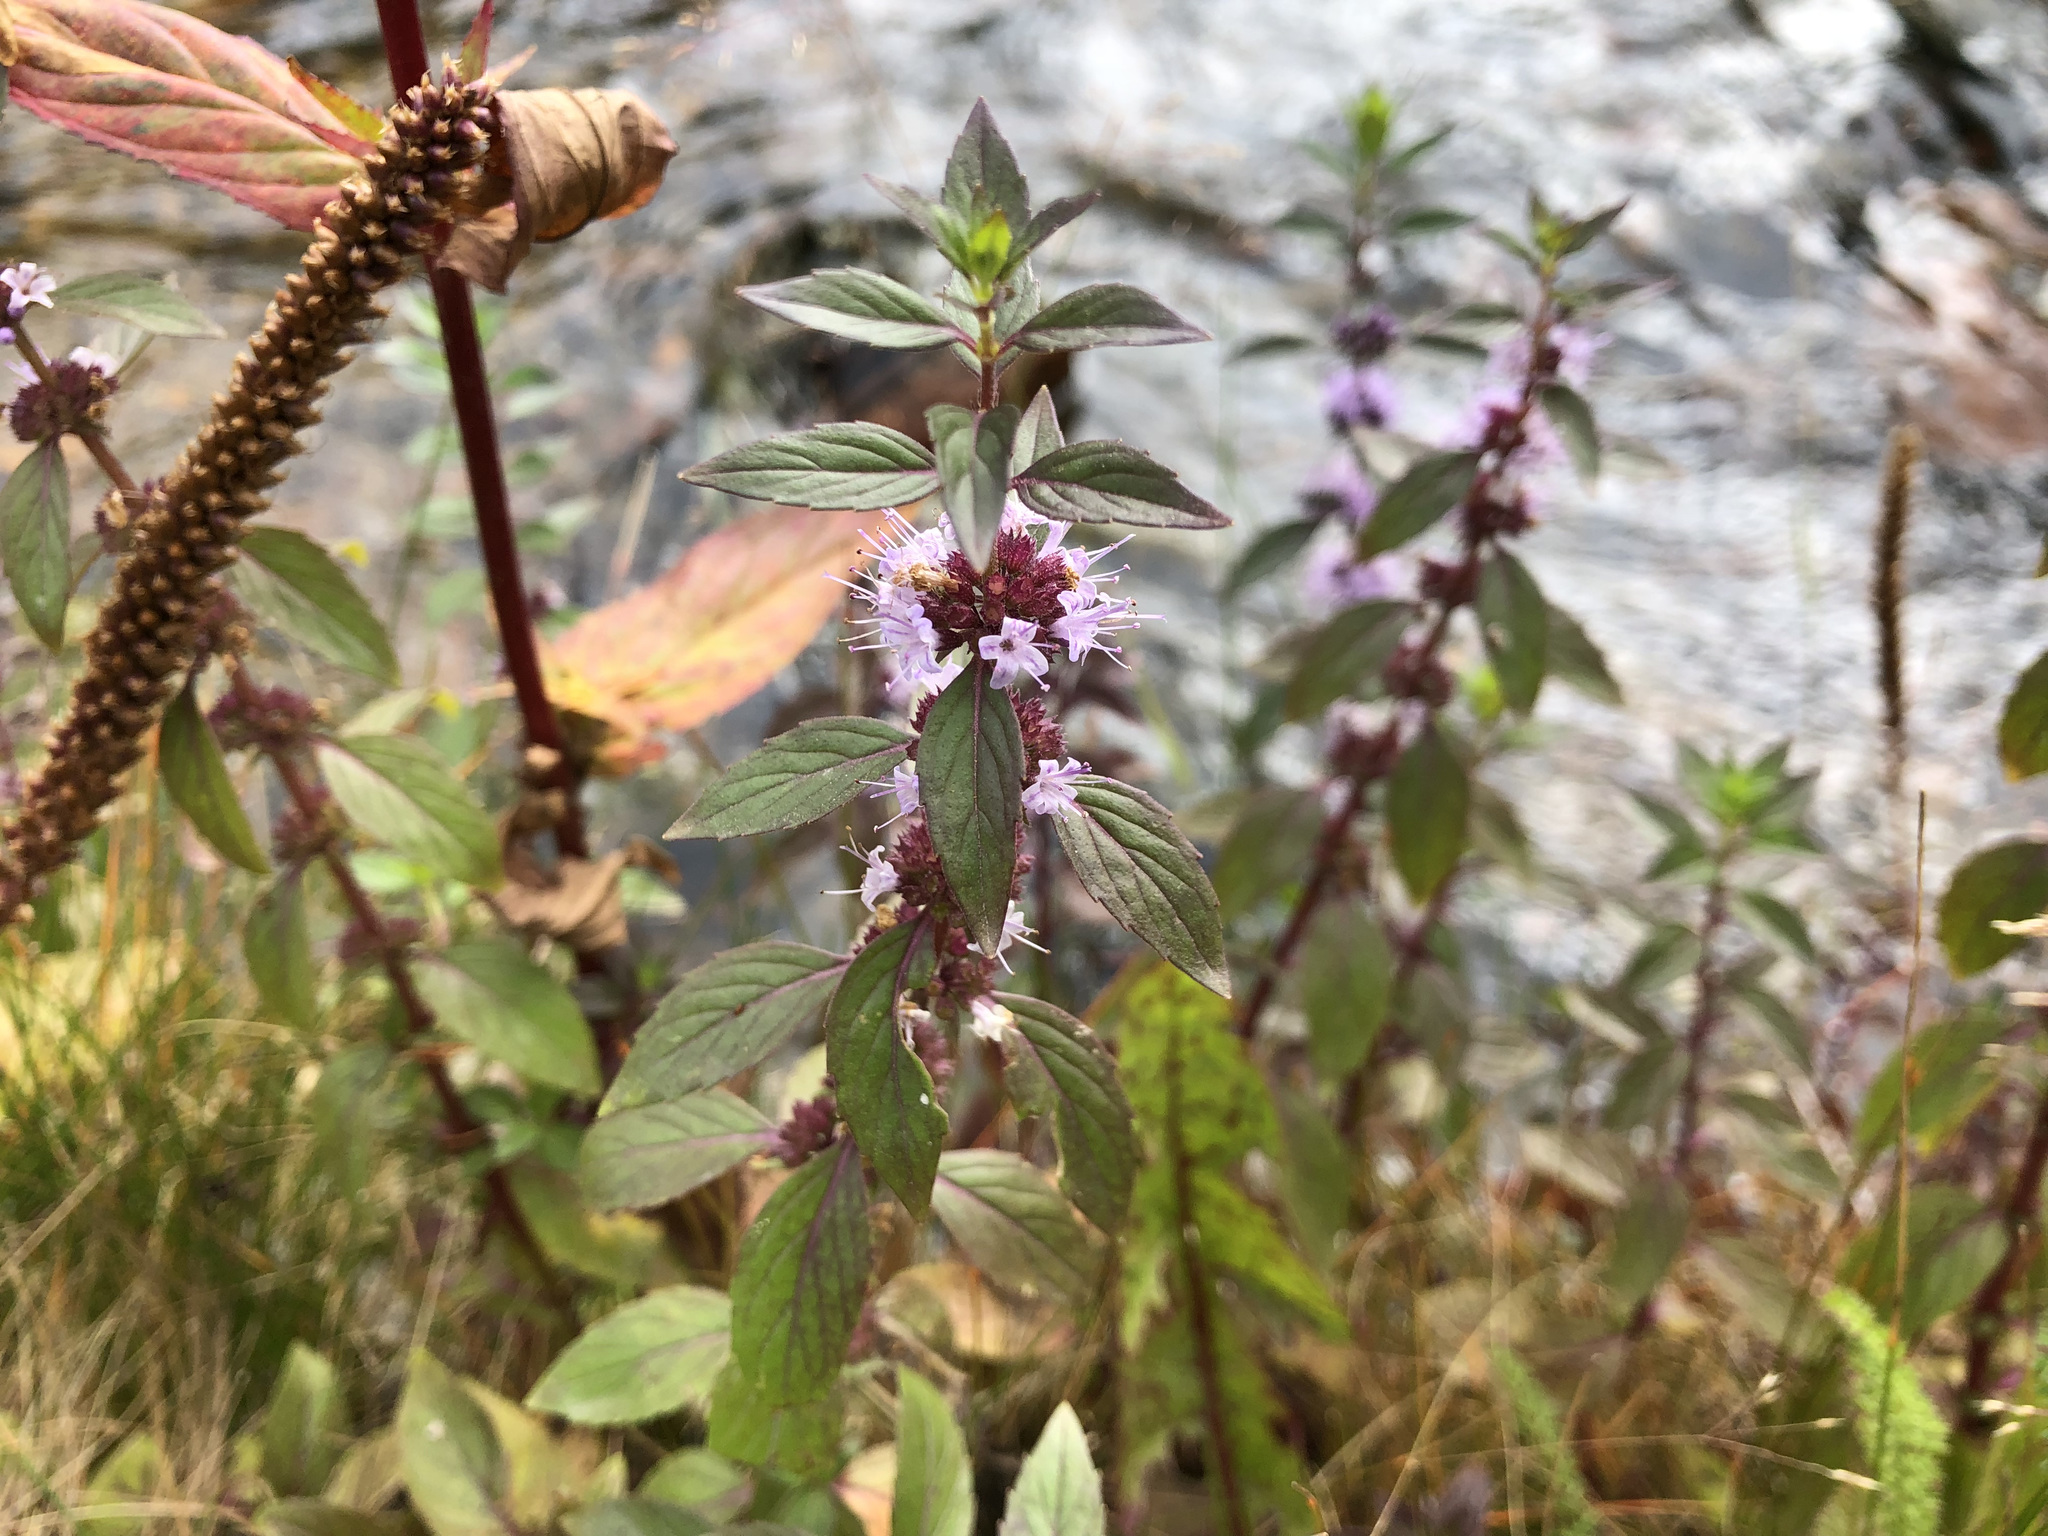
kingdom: Plantae
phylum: Tracheophyta
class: Magnoliopsida
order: Lamiales
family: Lamiaceae
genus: Mentha
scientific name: Mentha canadensis
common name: American corn mint
